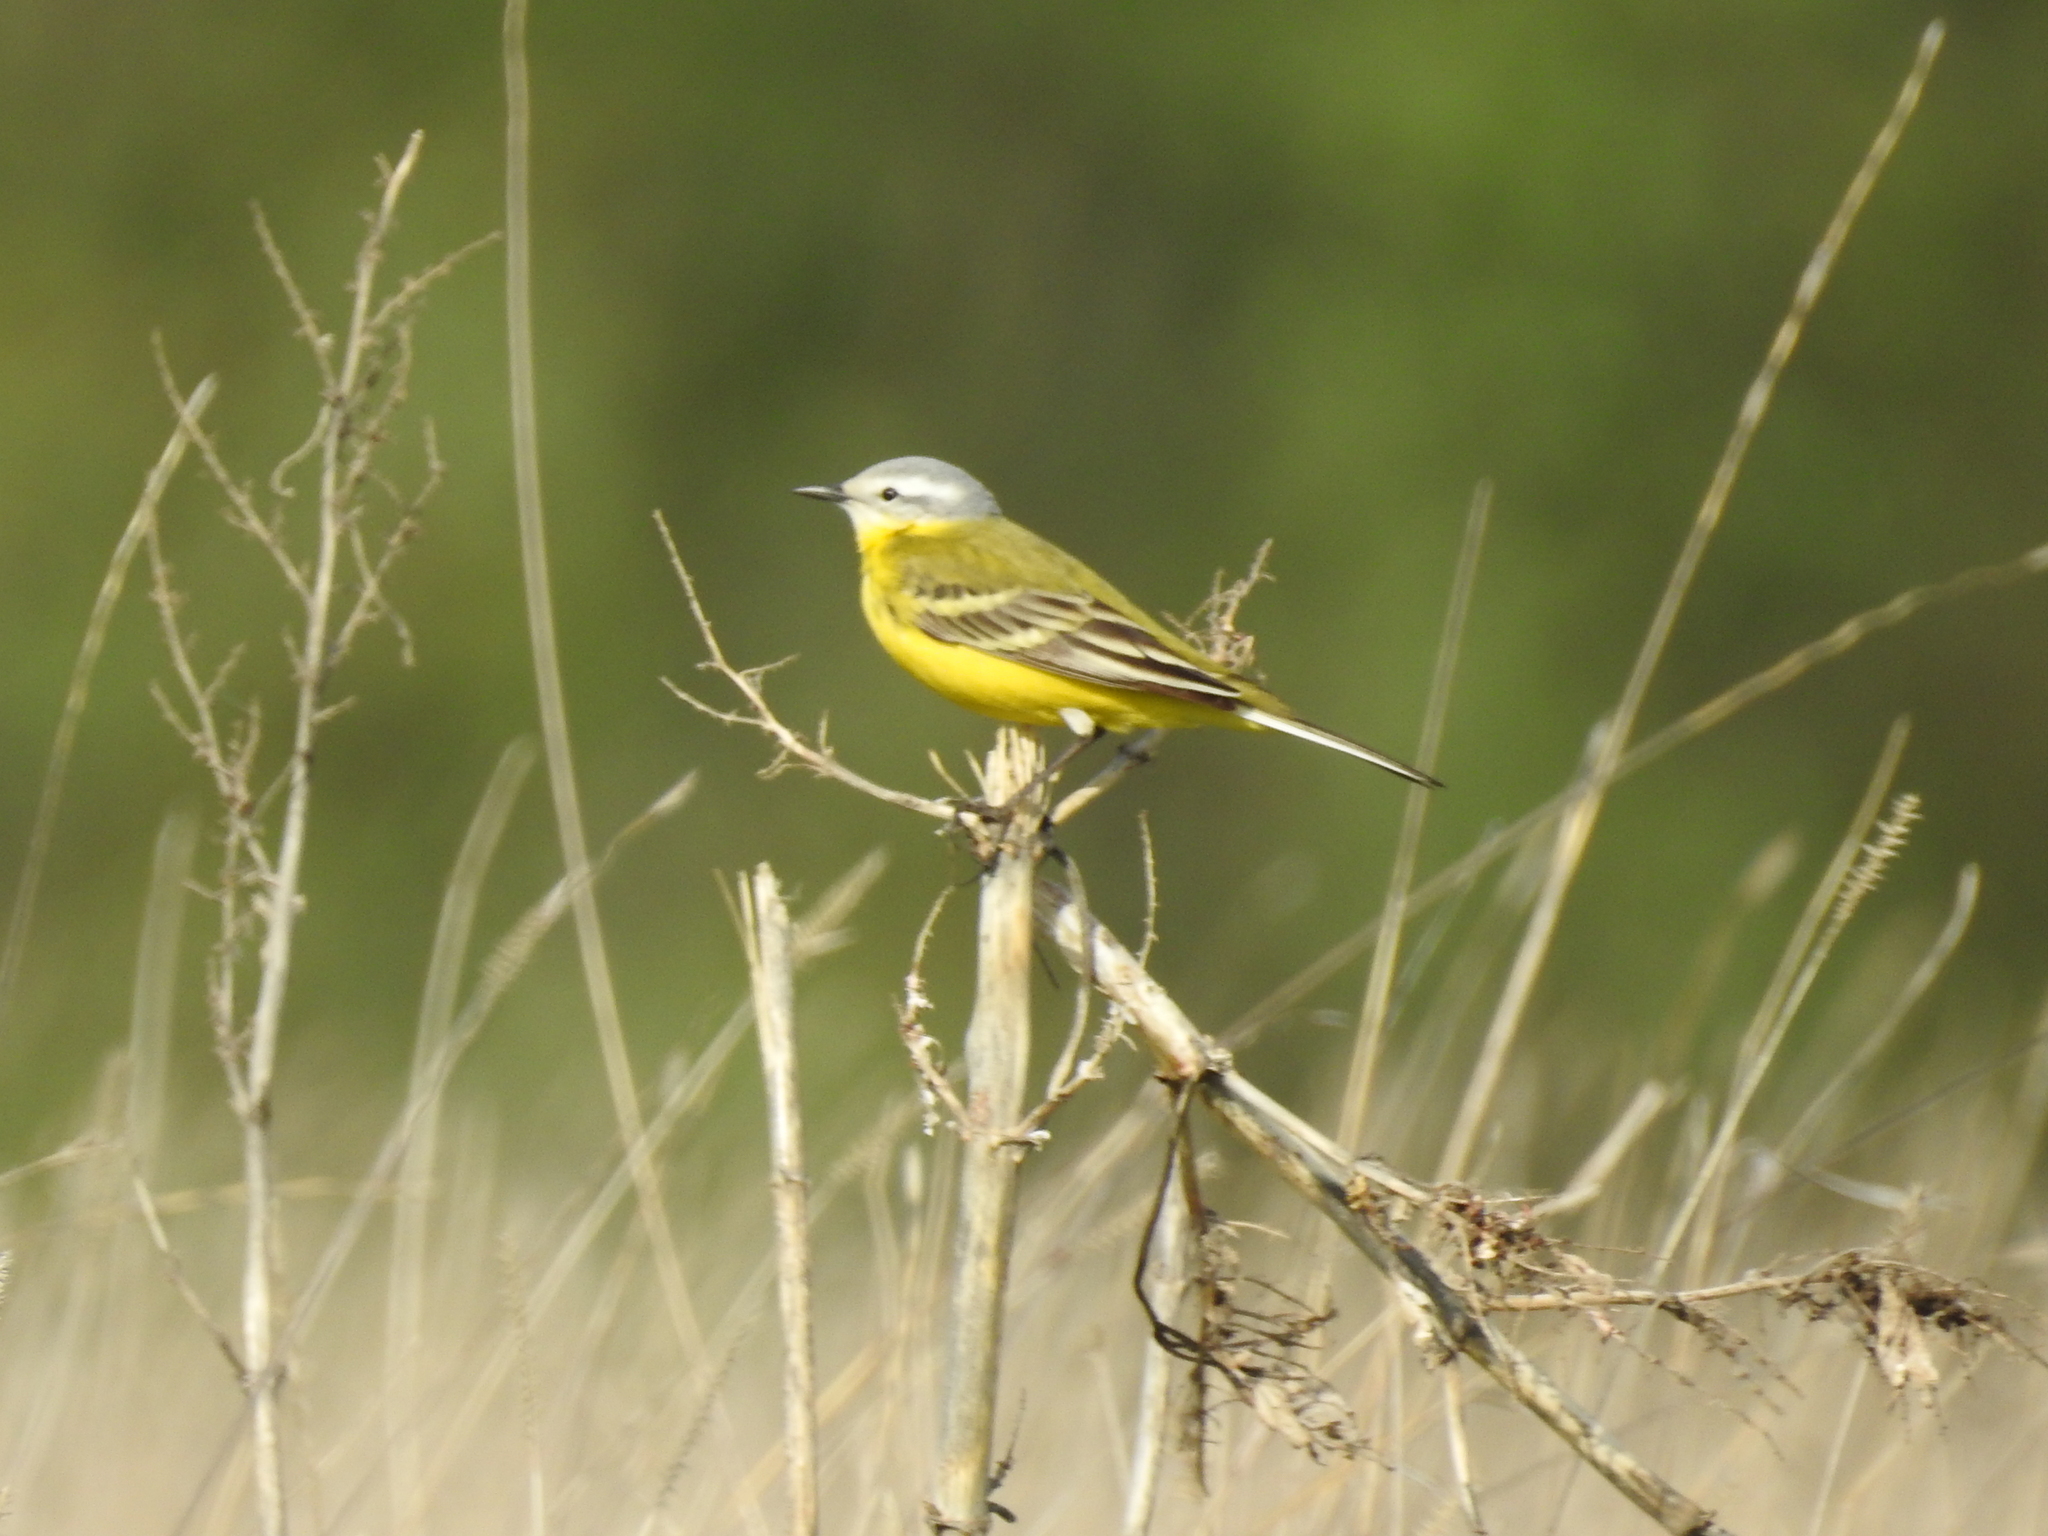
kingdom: Animalia
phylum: Chordata
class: Aves
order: Passeriformes
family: Motacillidae
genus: Motacilla
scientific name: Motacilla flava
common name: Western yellow wagtail
